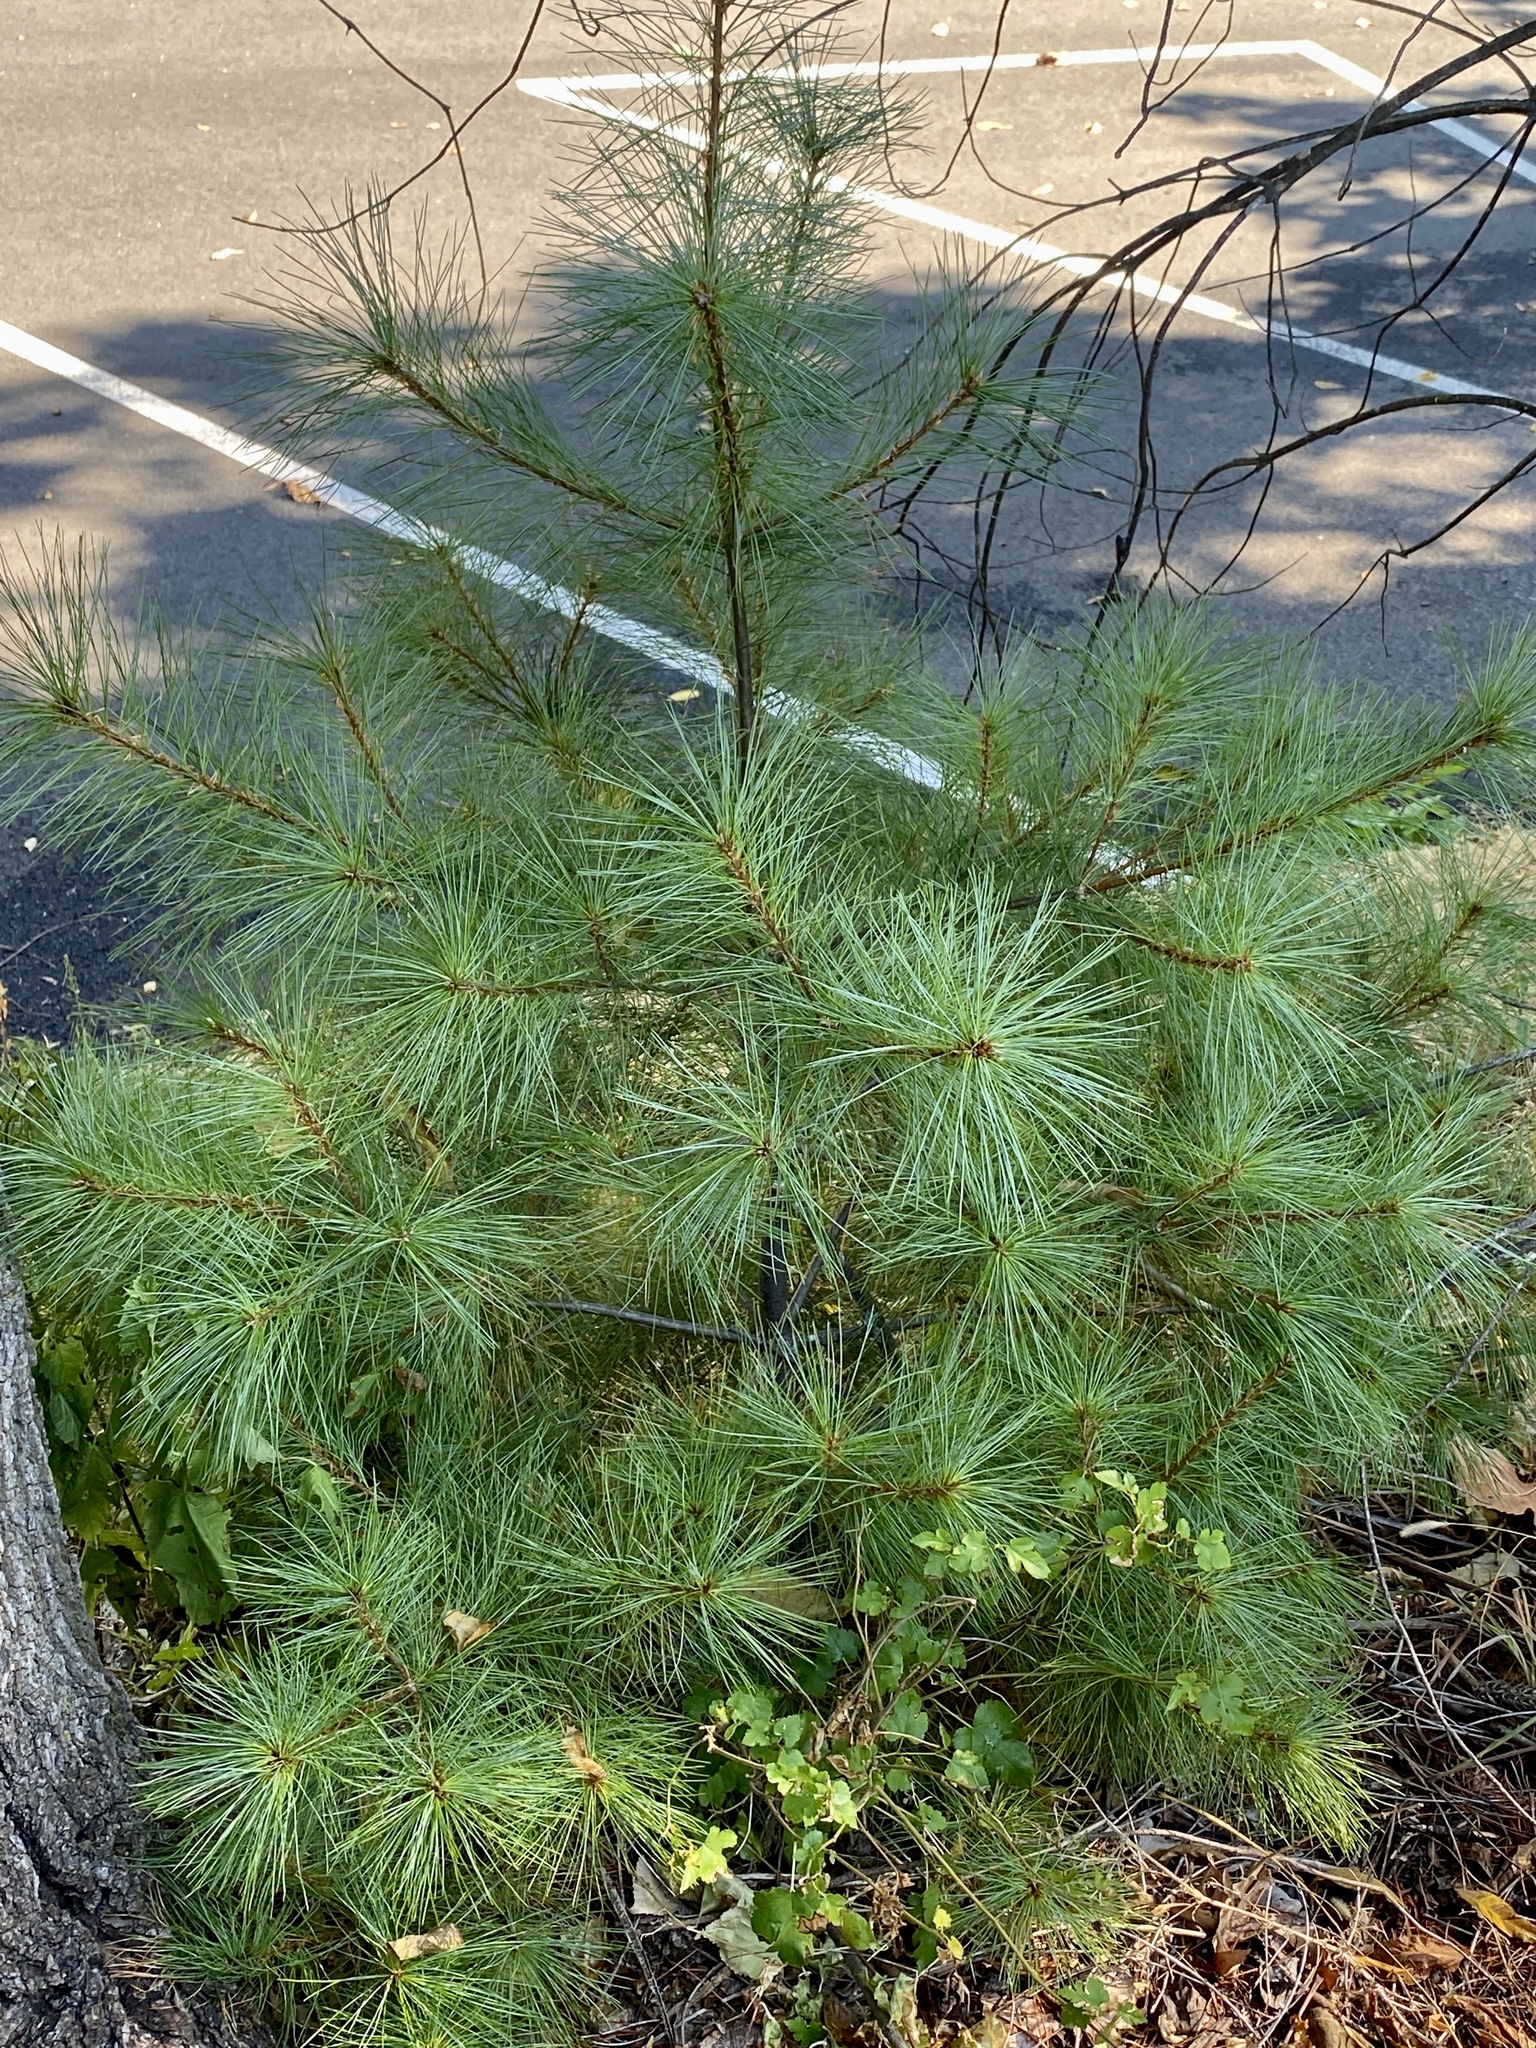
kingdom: Plantae
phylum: Tracheophyta
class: Pinopsida
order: Pinales
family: Pinaceae
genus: Pinus
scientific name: Pinus strobus
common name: Weymouth pine
